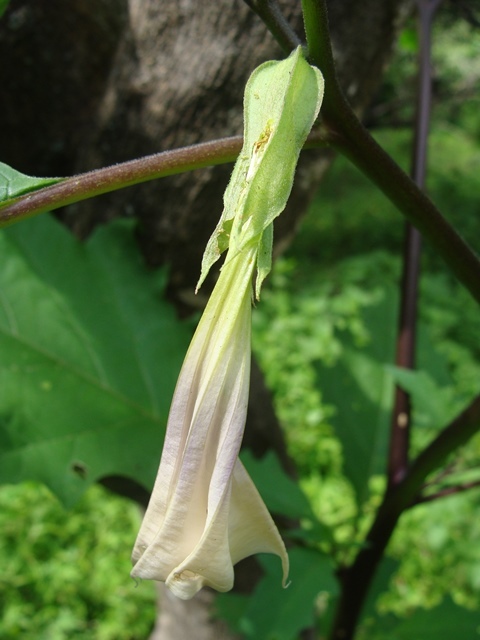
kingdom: Plantae
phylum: Tracheophyta
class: Magnoliopsida
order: Solanales
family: Solanaceae
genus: Datura
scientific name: Datura stramonium
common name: Thorn-apple
